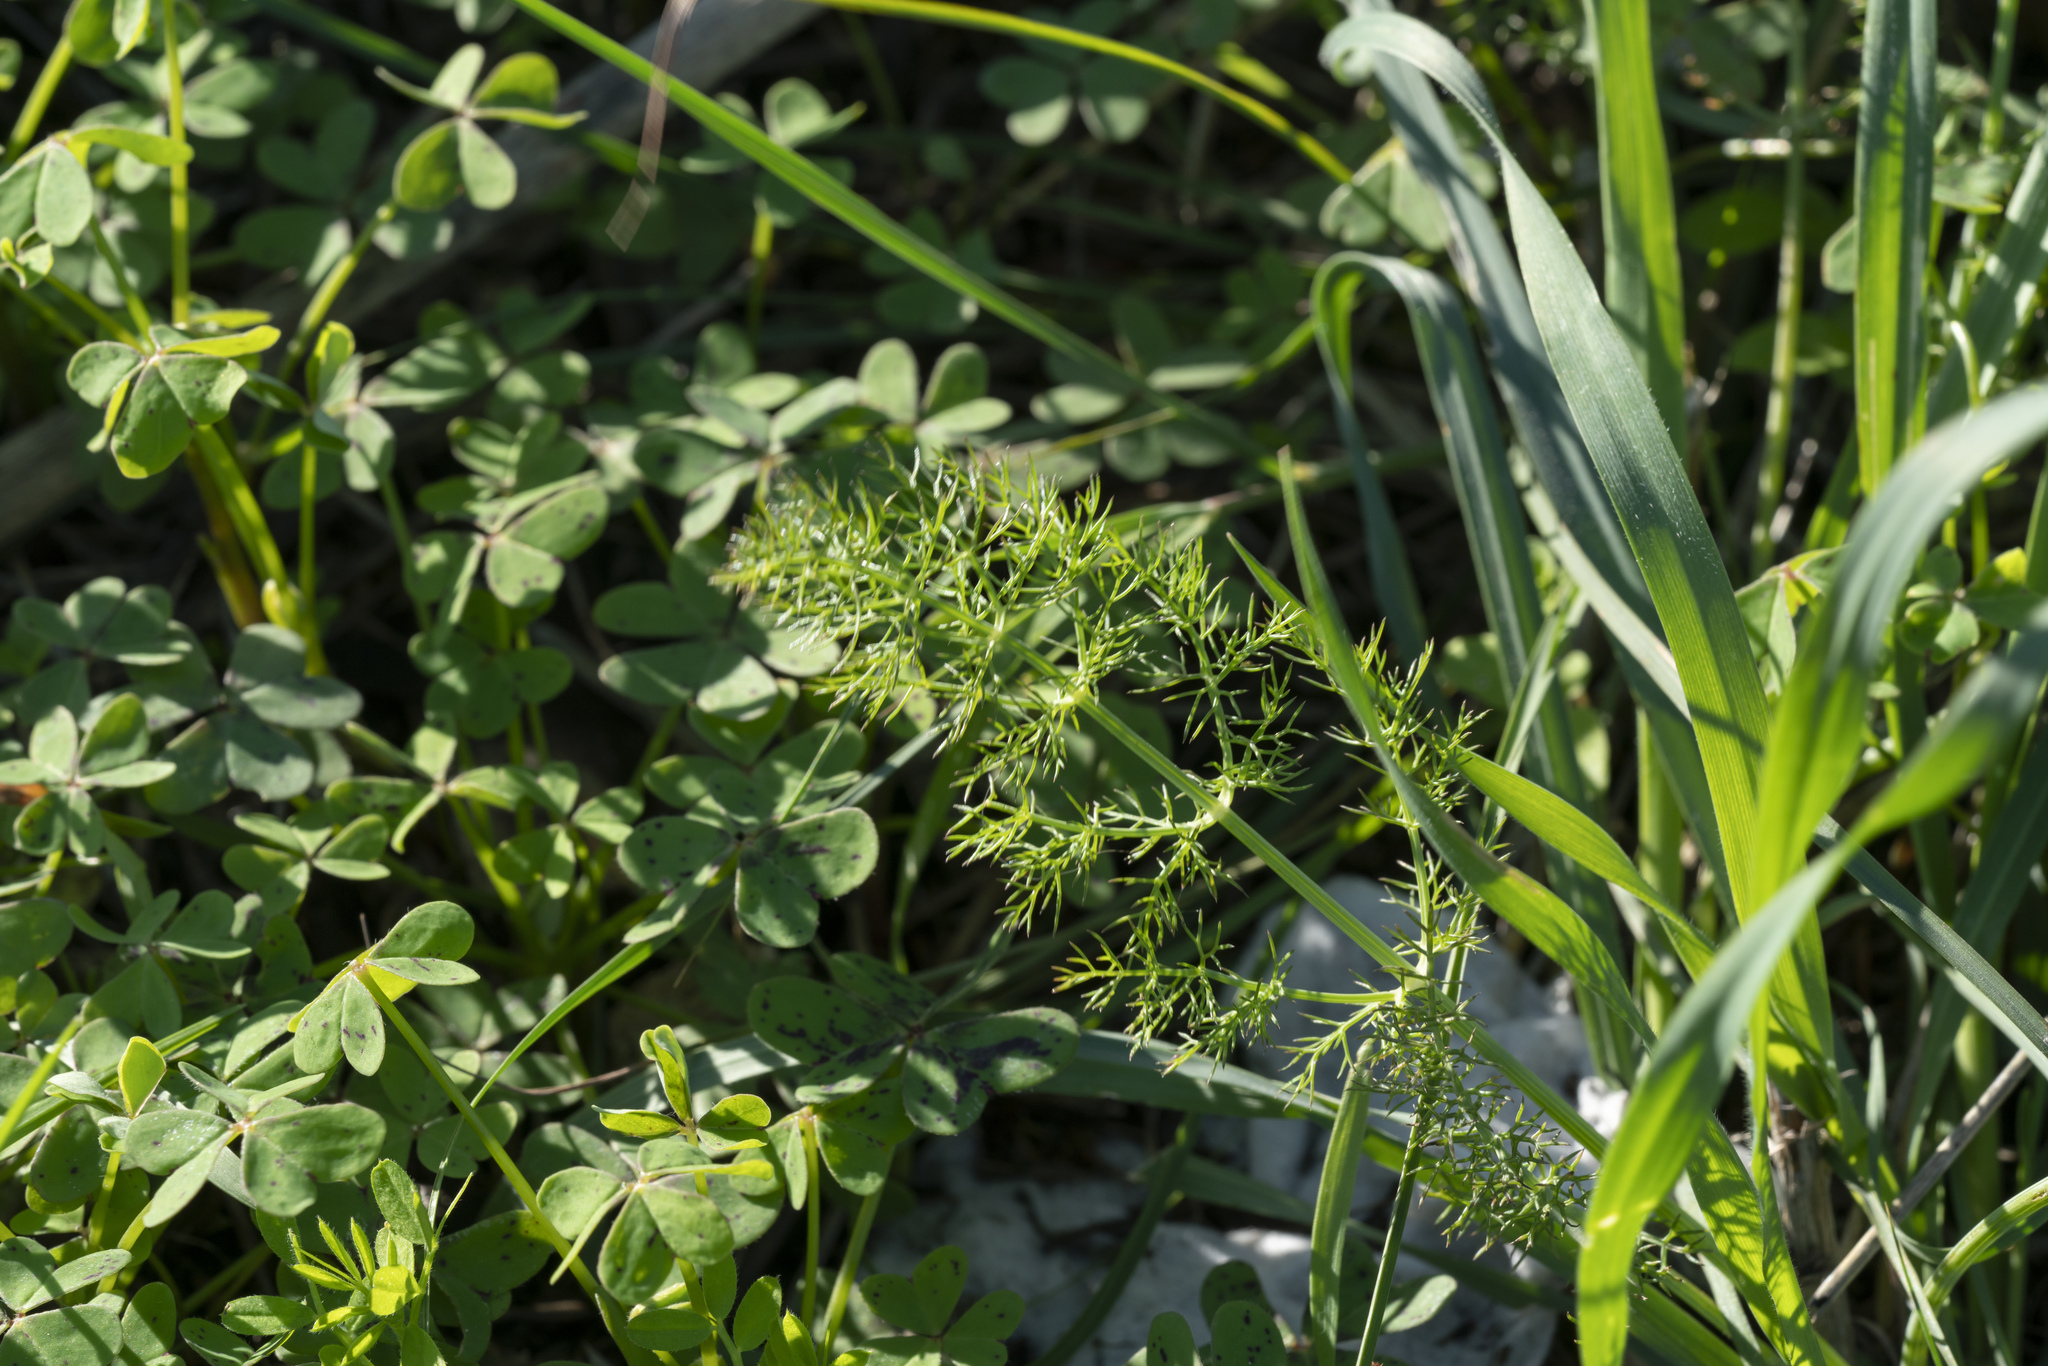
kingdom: Plantae
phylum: Tracheophyta
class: Magnoliopsida
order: Apiales
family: Apiaceae
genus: Foeniculum
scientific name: Foeniculum vulgare
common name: Fennel
